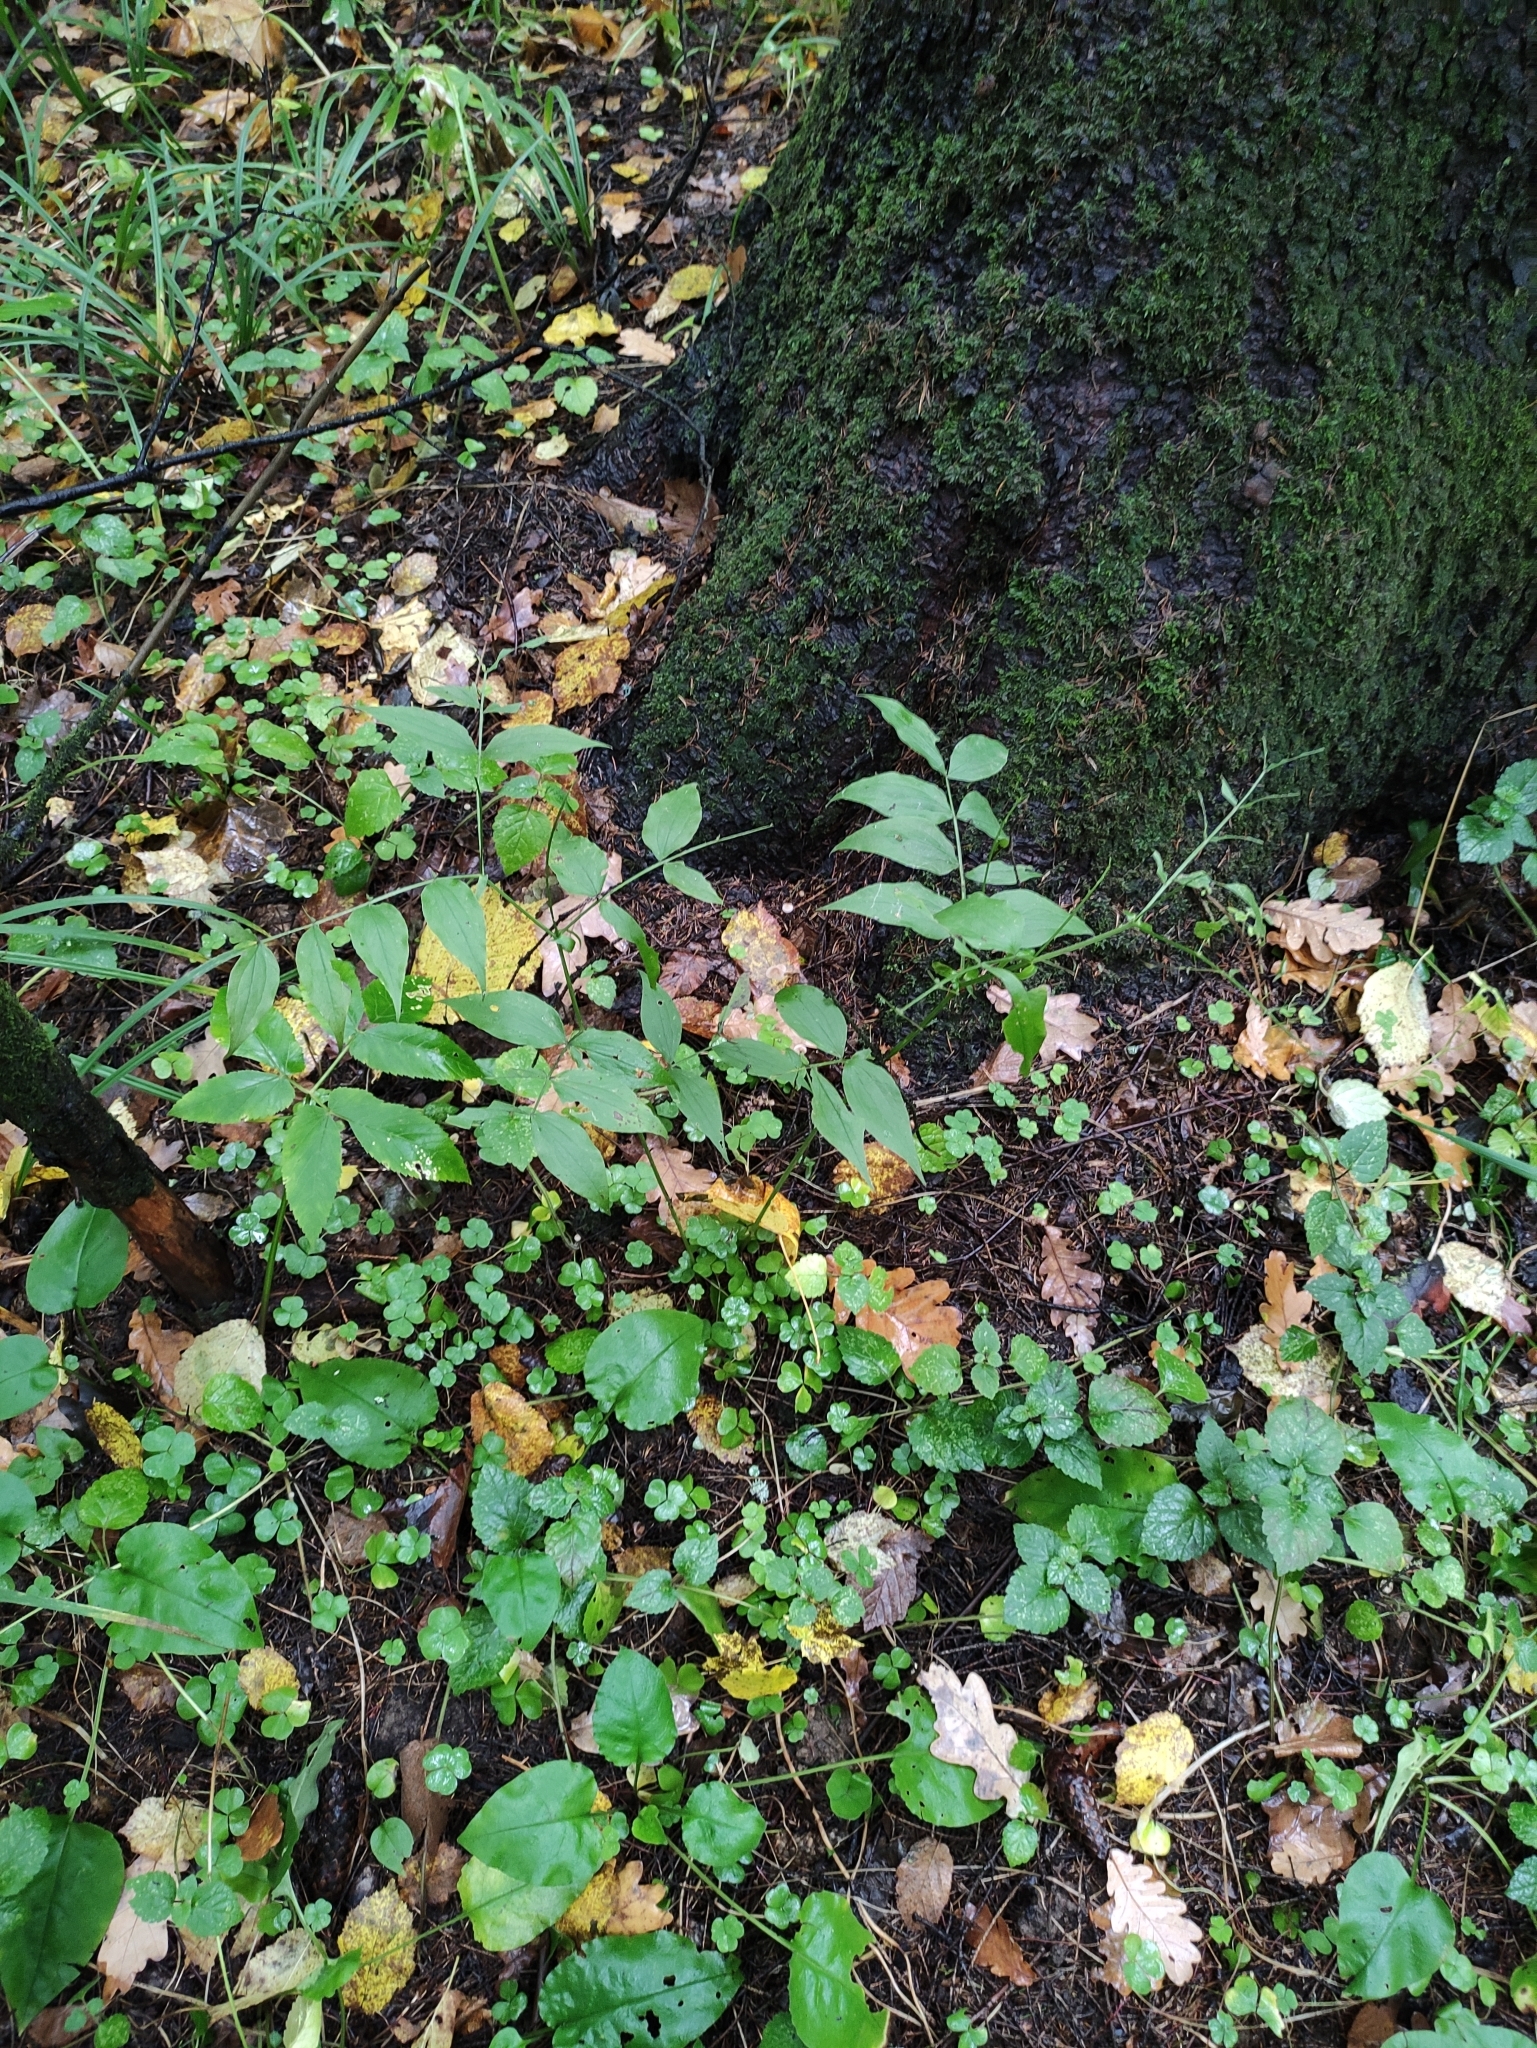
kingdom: Plantae
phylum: Tracheophyta
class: Magnoliopsida
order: Fabales
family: Fabaceae
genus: Lathyrus
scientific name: Lathyrus vernus
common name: Spring pea
